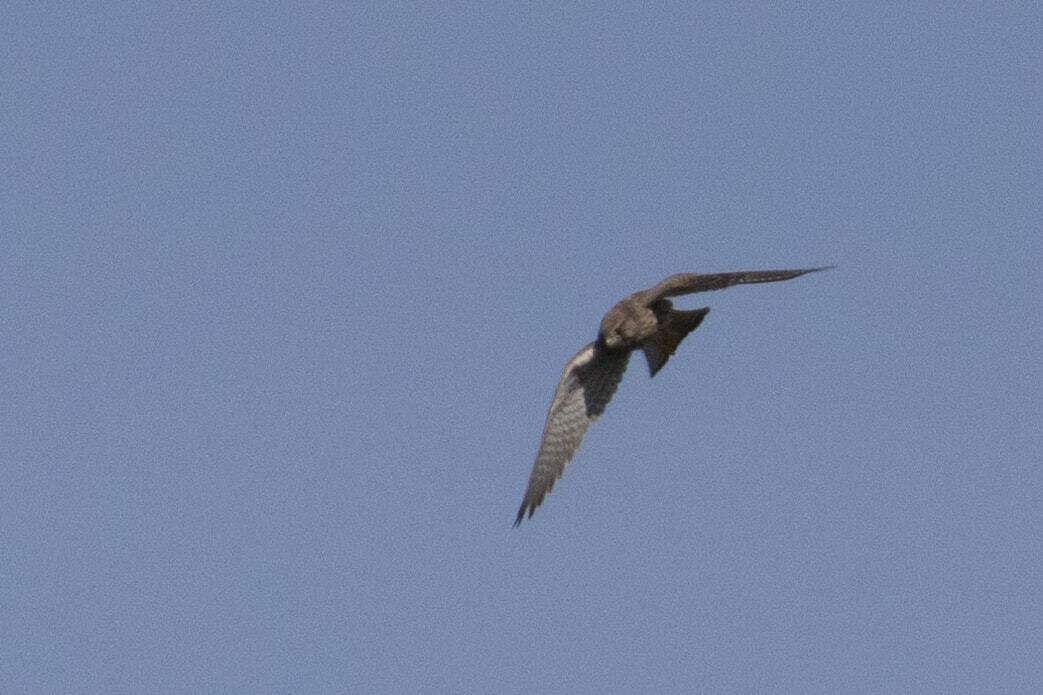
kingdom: Animalia
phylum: Chordata
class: Aves
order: Falconiformes
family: Falconidae
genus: Falco
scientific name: Falco tinnunculus
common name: Common kestrel
